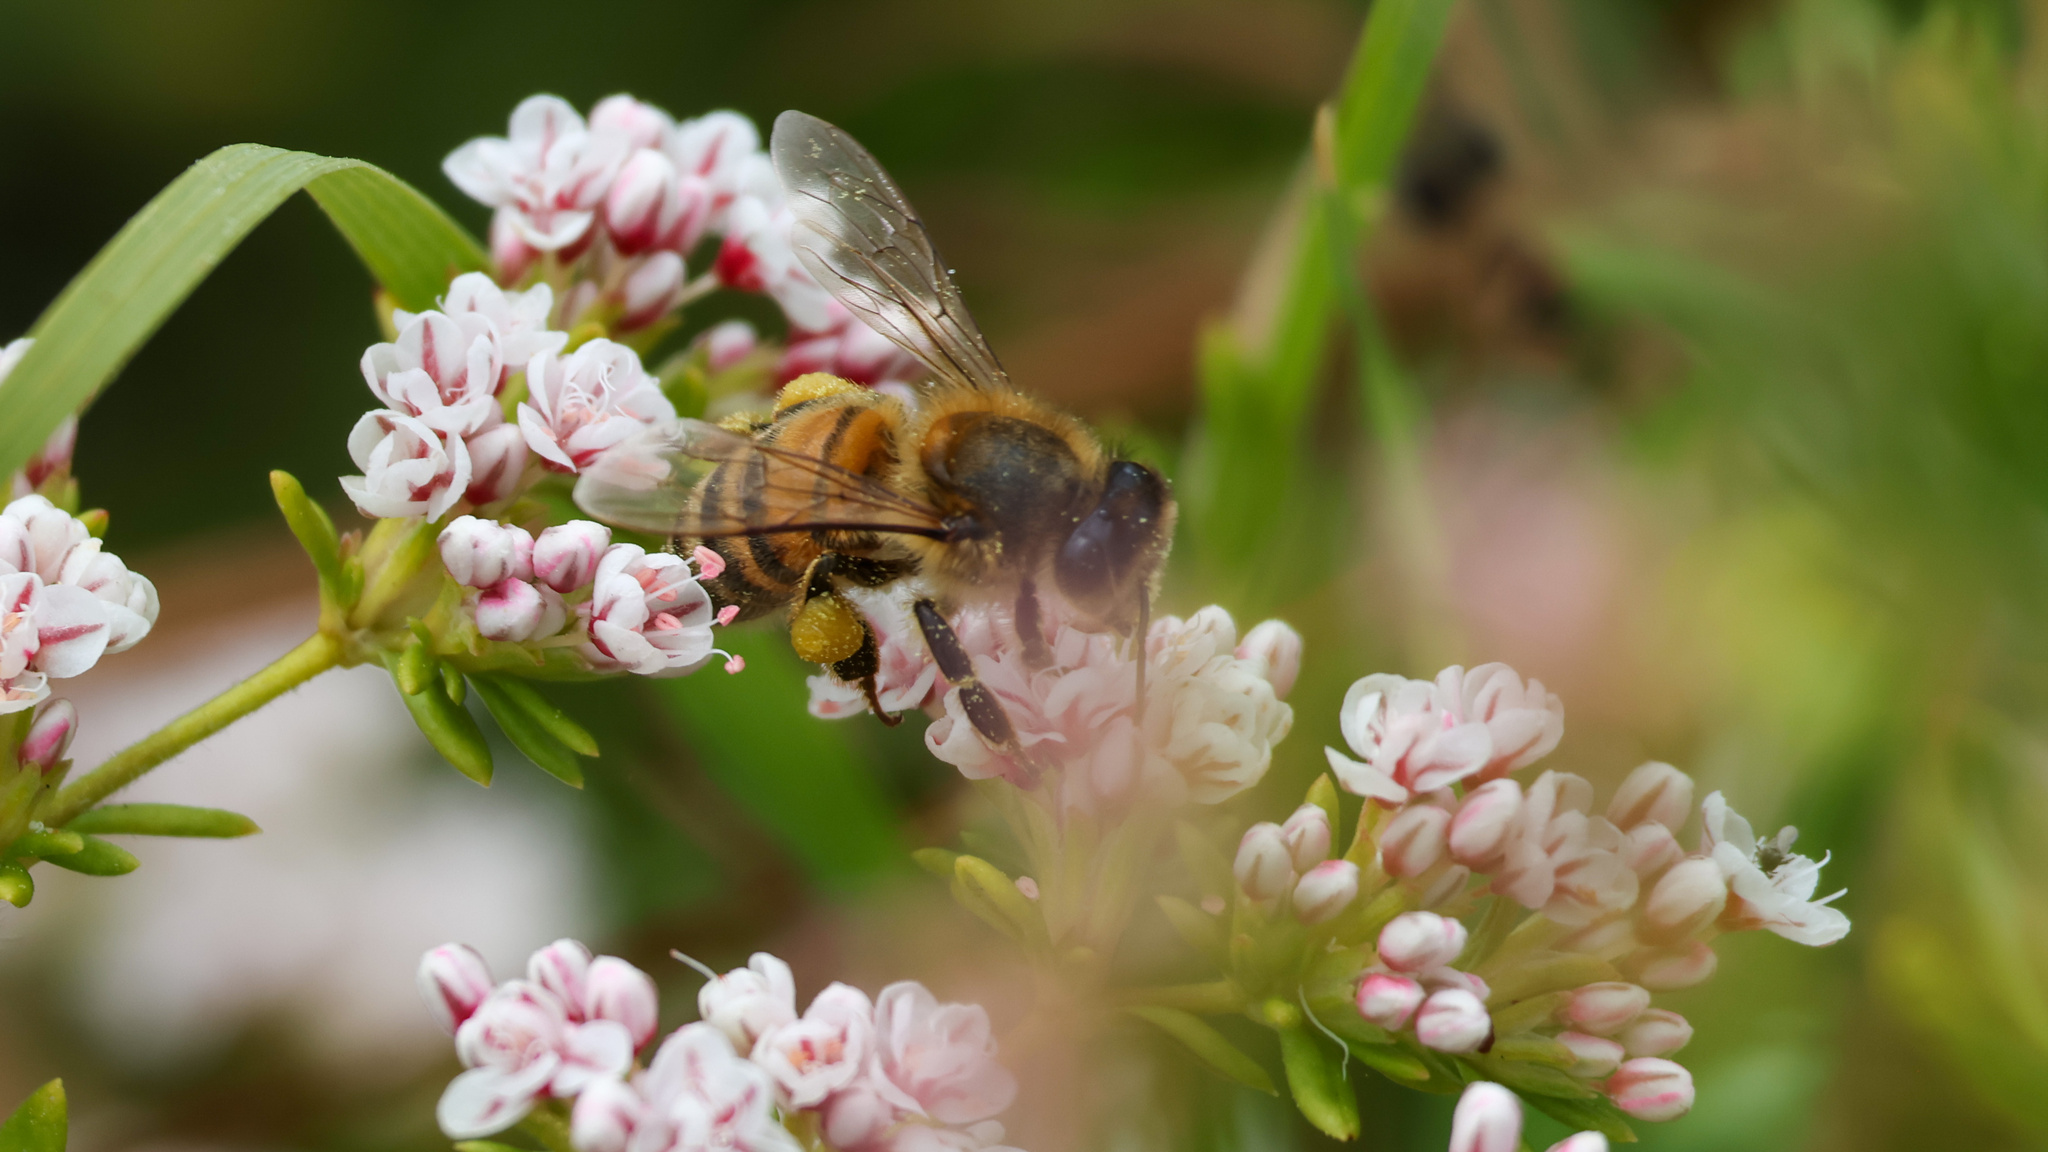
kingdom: Animalia
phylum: Arthropoda
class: Insecta
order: Hymenoptera
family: Apidae
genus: Apis
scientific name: Apis mellifera
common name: Honey bee
